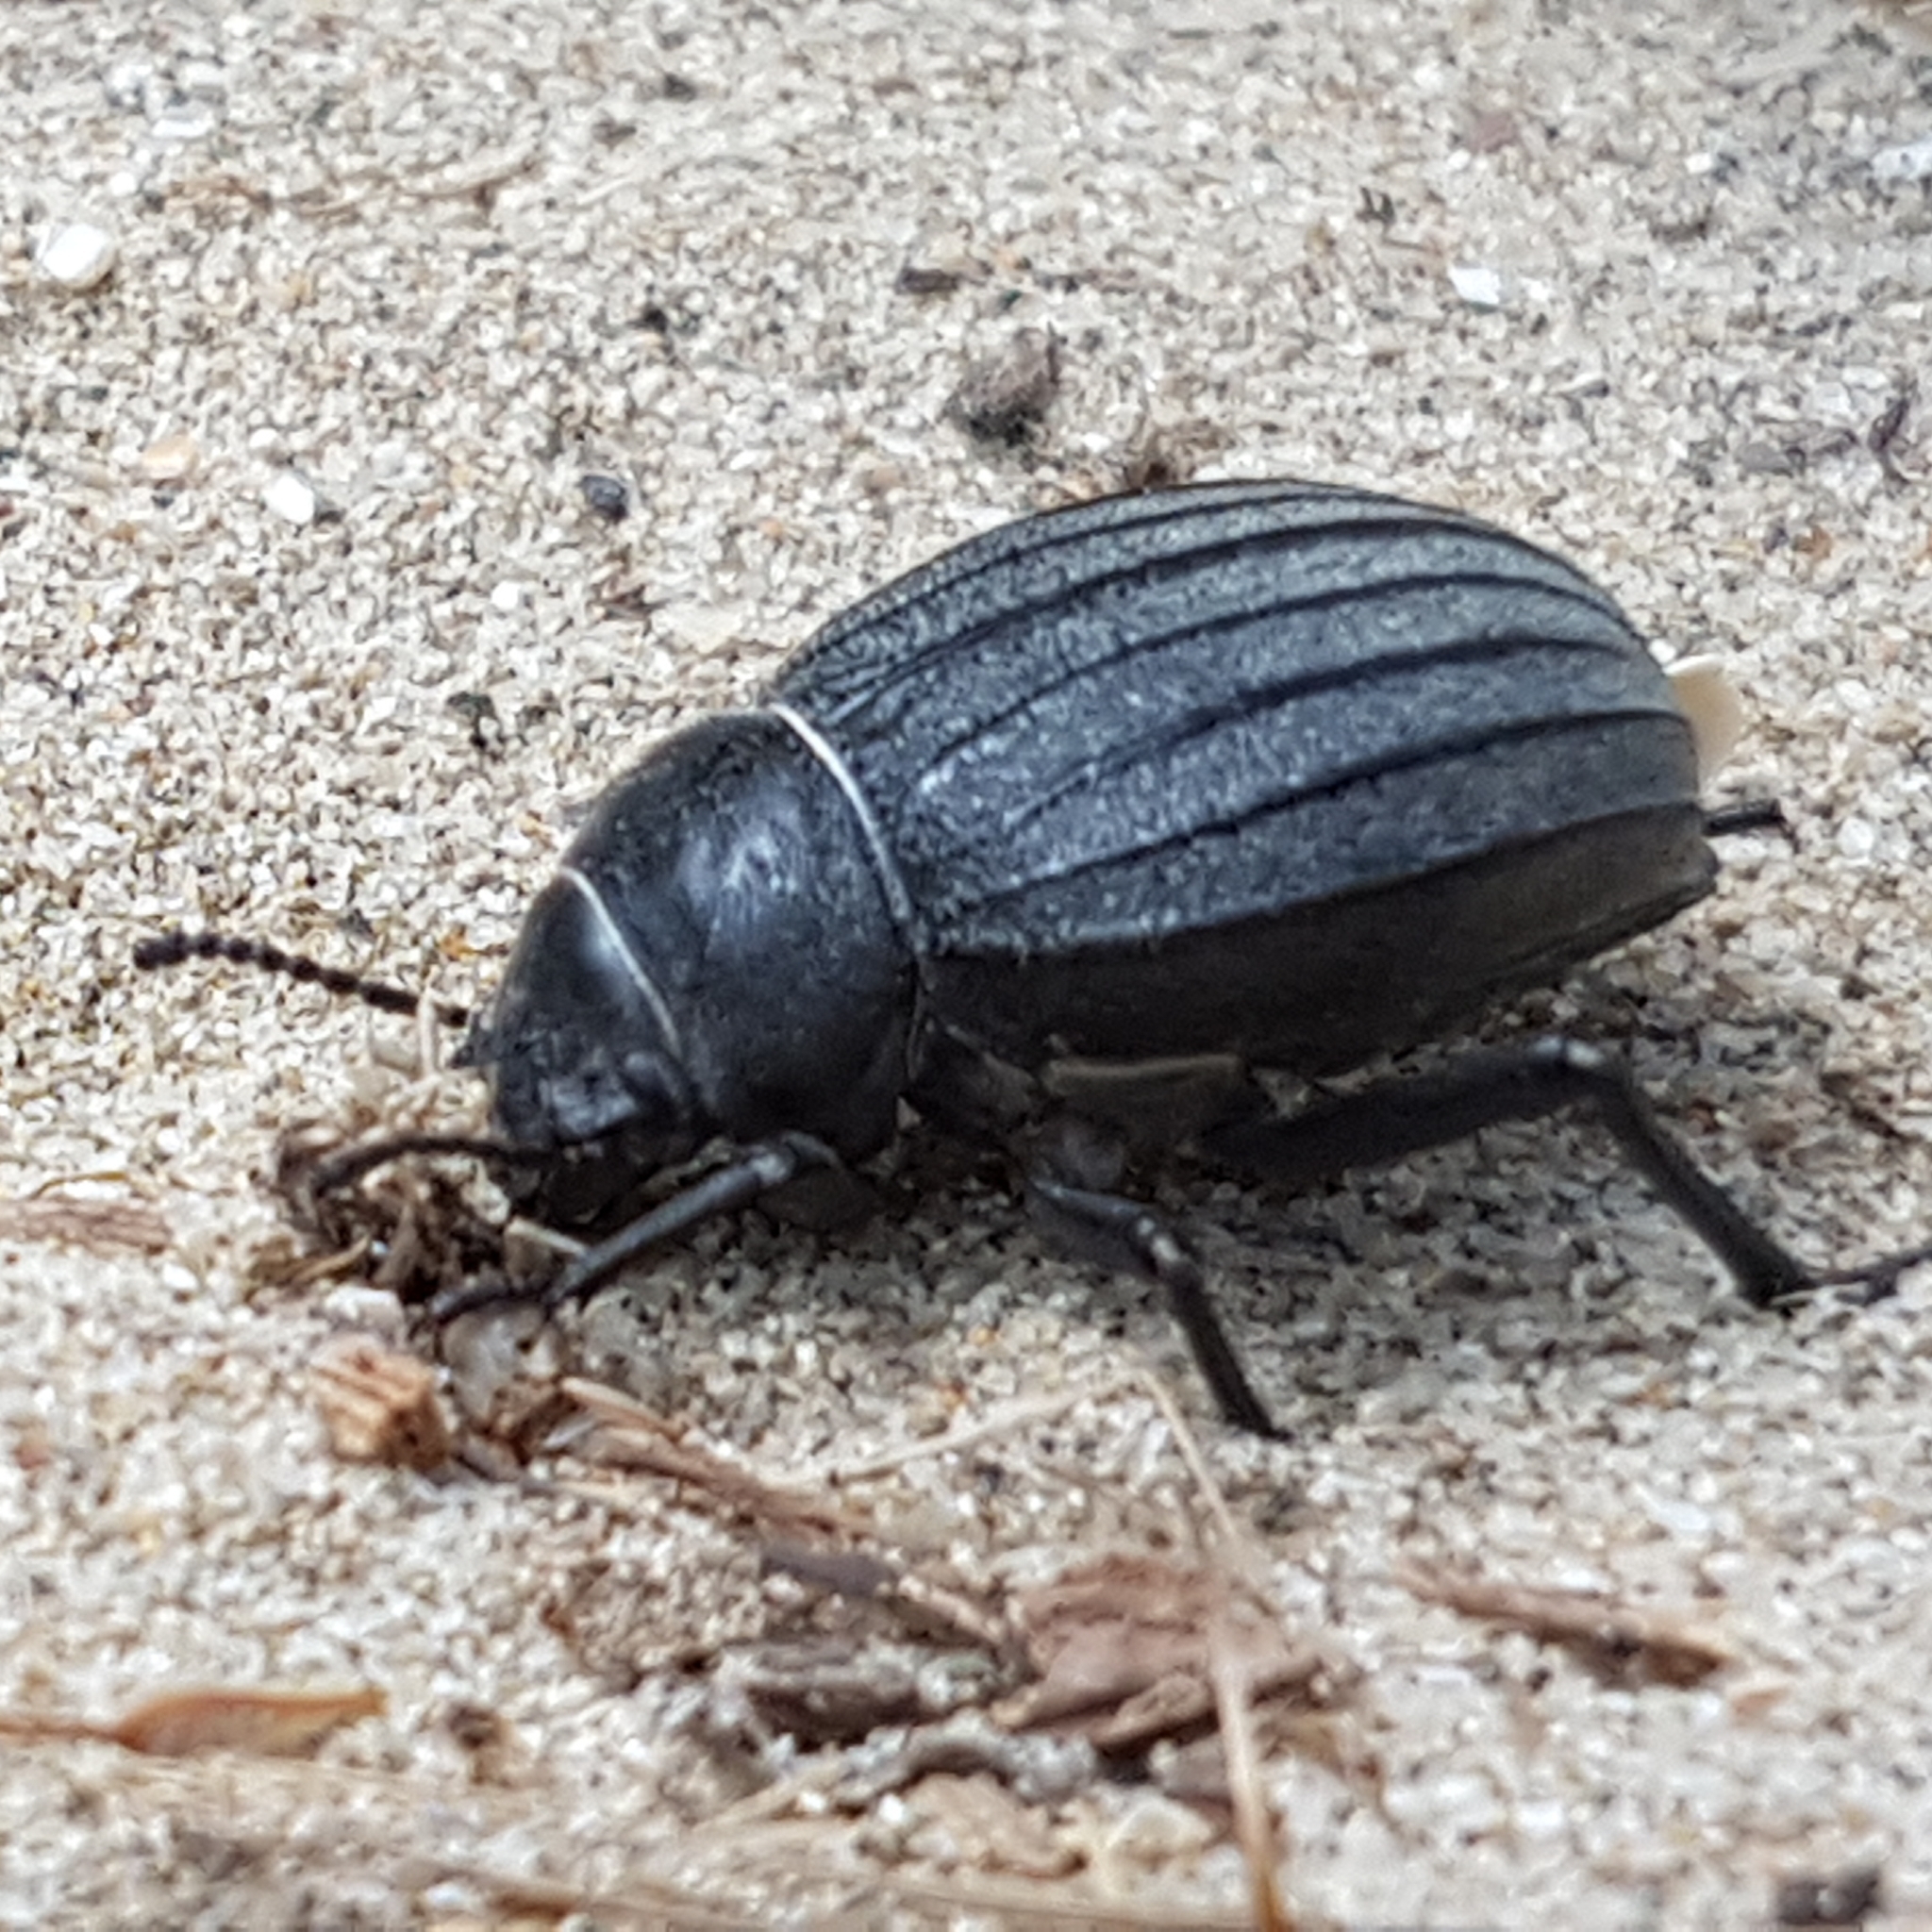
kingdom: Animalia
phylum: Arthropoda
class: Insecta
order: Coleoptera
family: Tenebrionidae
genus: Pimelia
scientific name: Pimelia muricata
